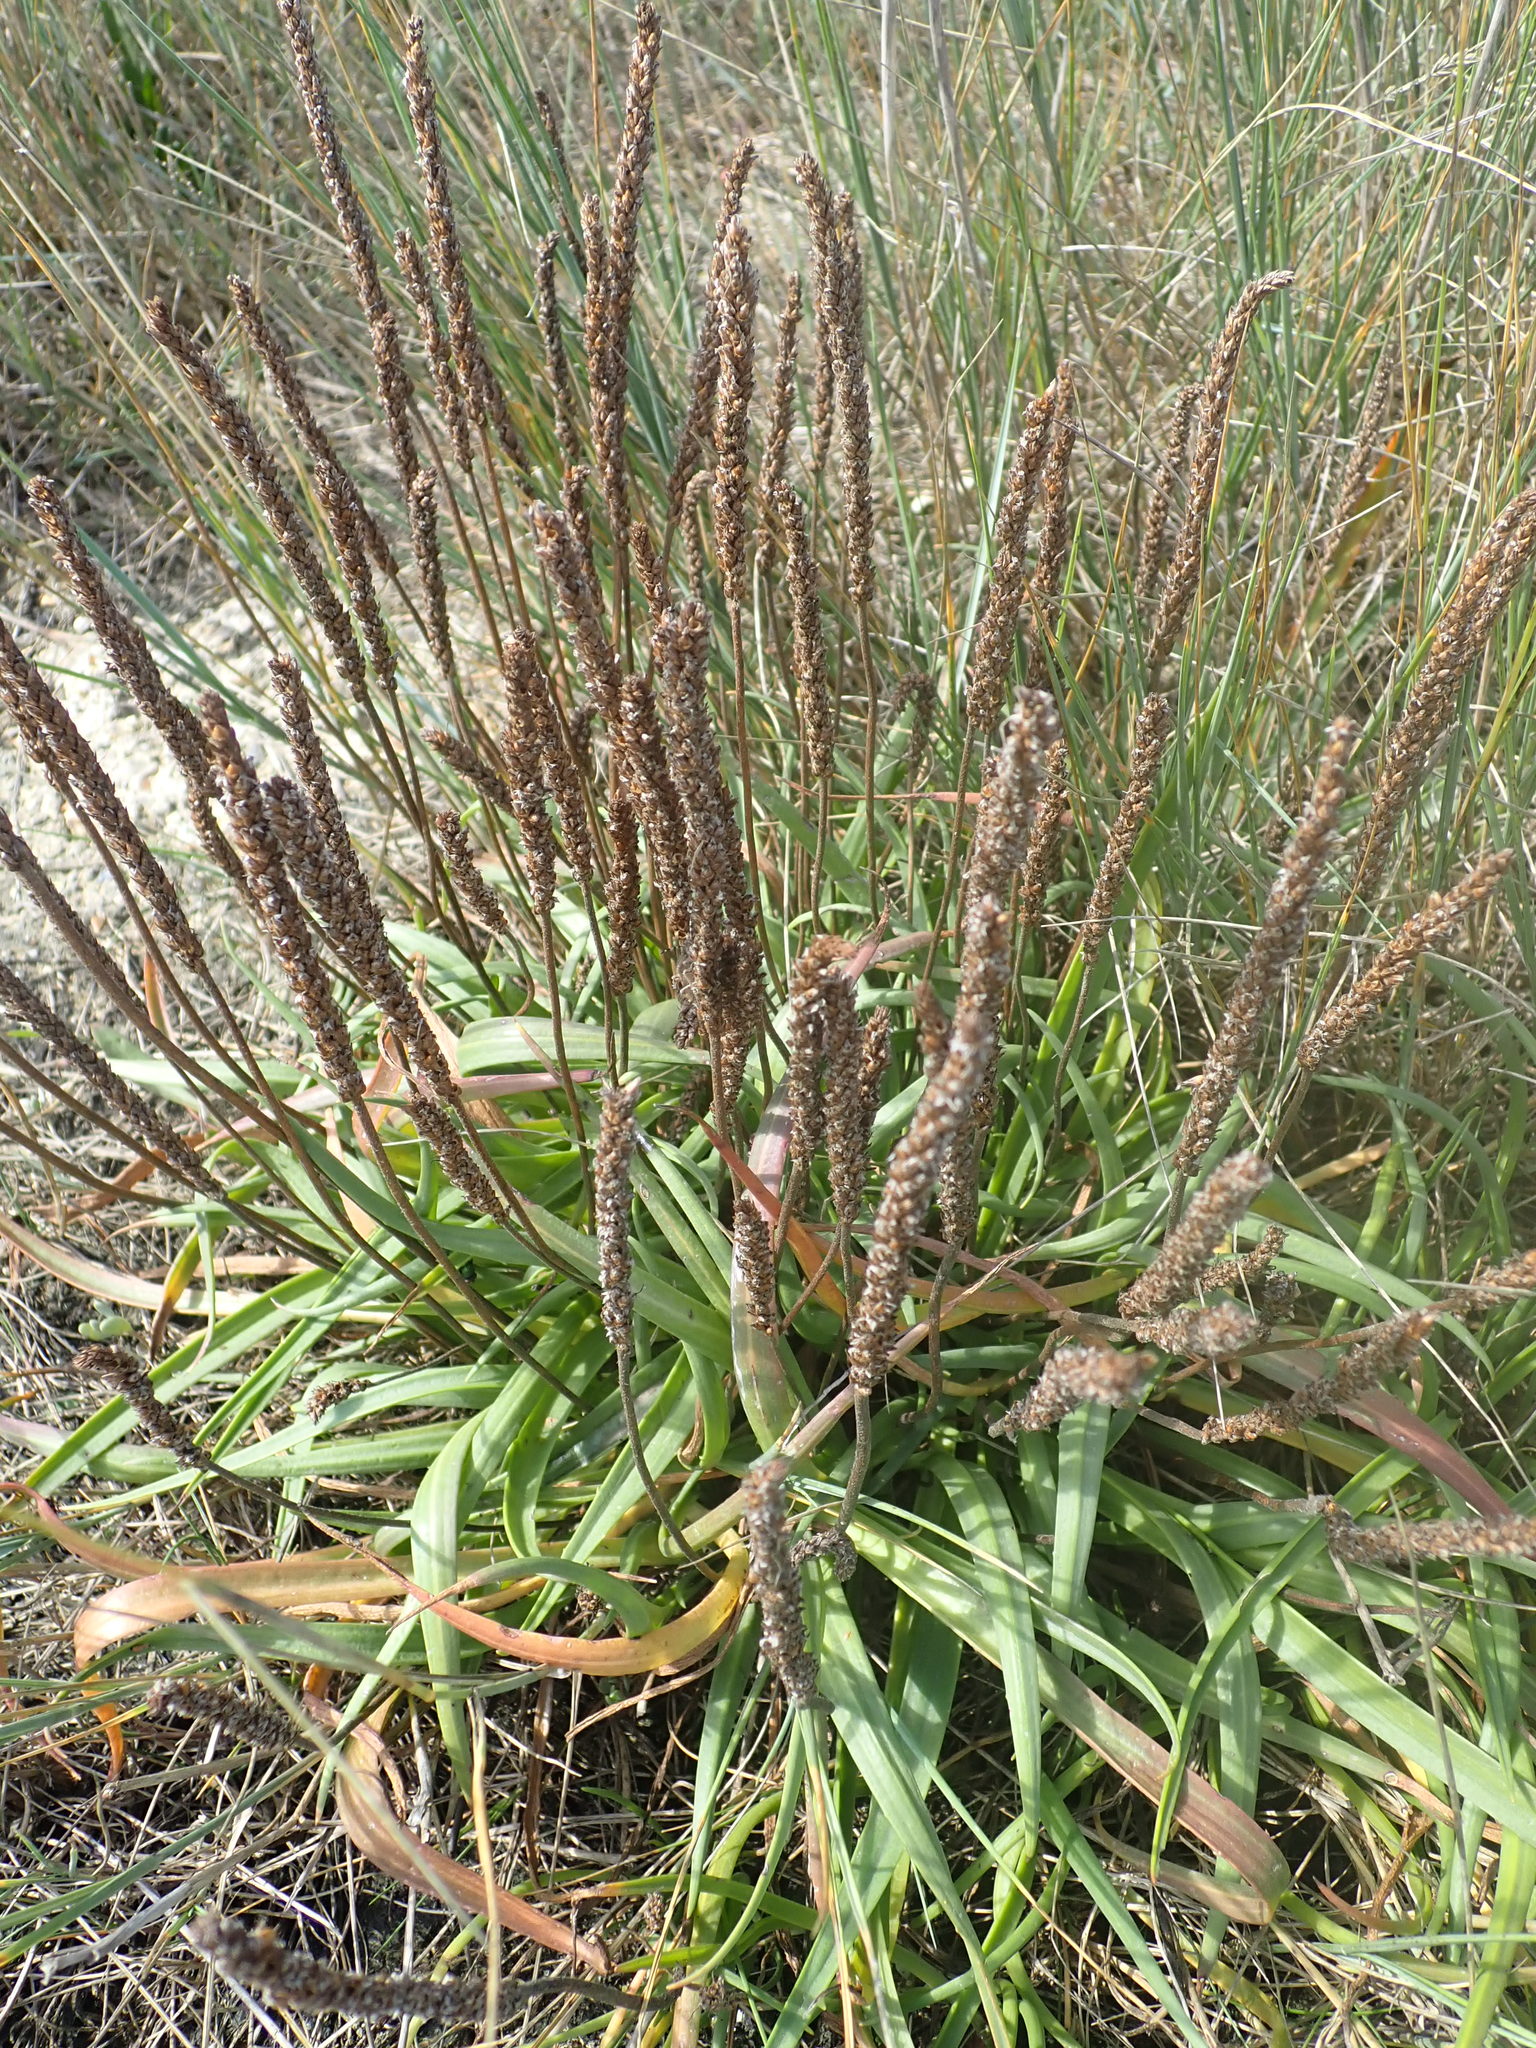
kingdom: Plantae
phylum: Tracheophyta
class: Magnoliopsida
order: Lamiales
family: Plantaginaceae
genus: Plantago
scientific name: Plantago maritima
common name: Sea plantain
